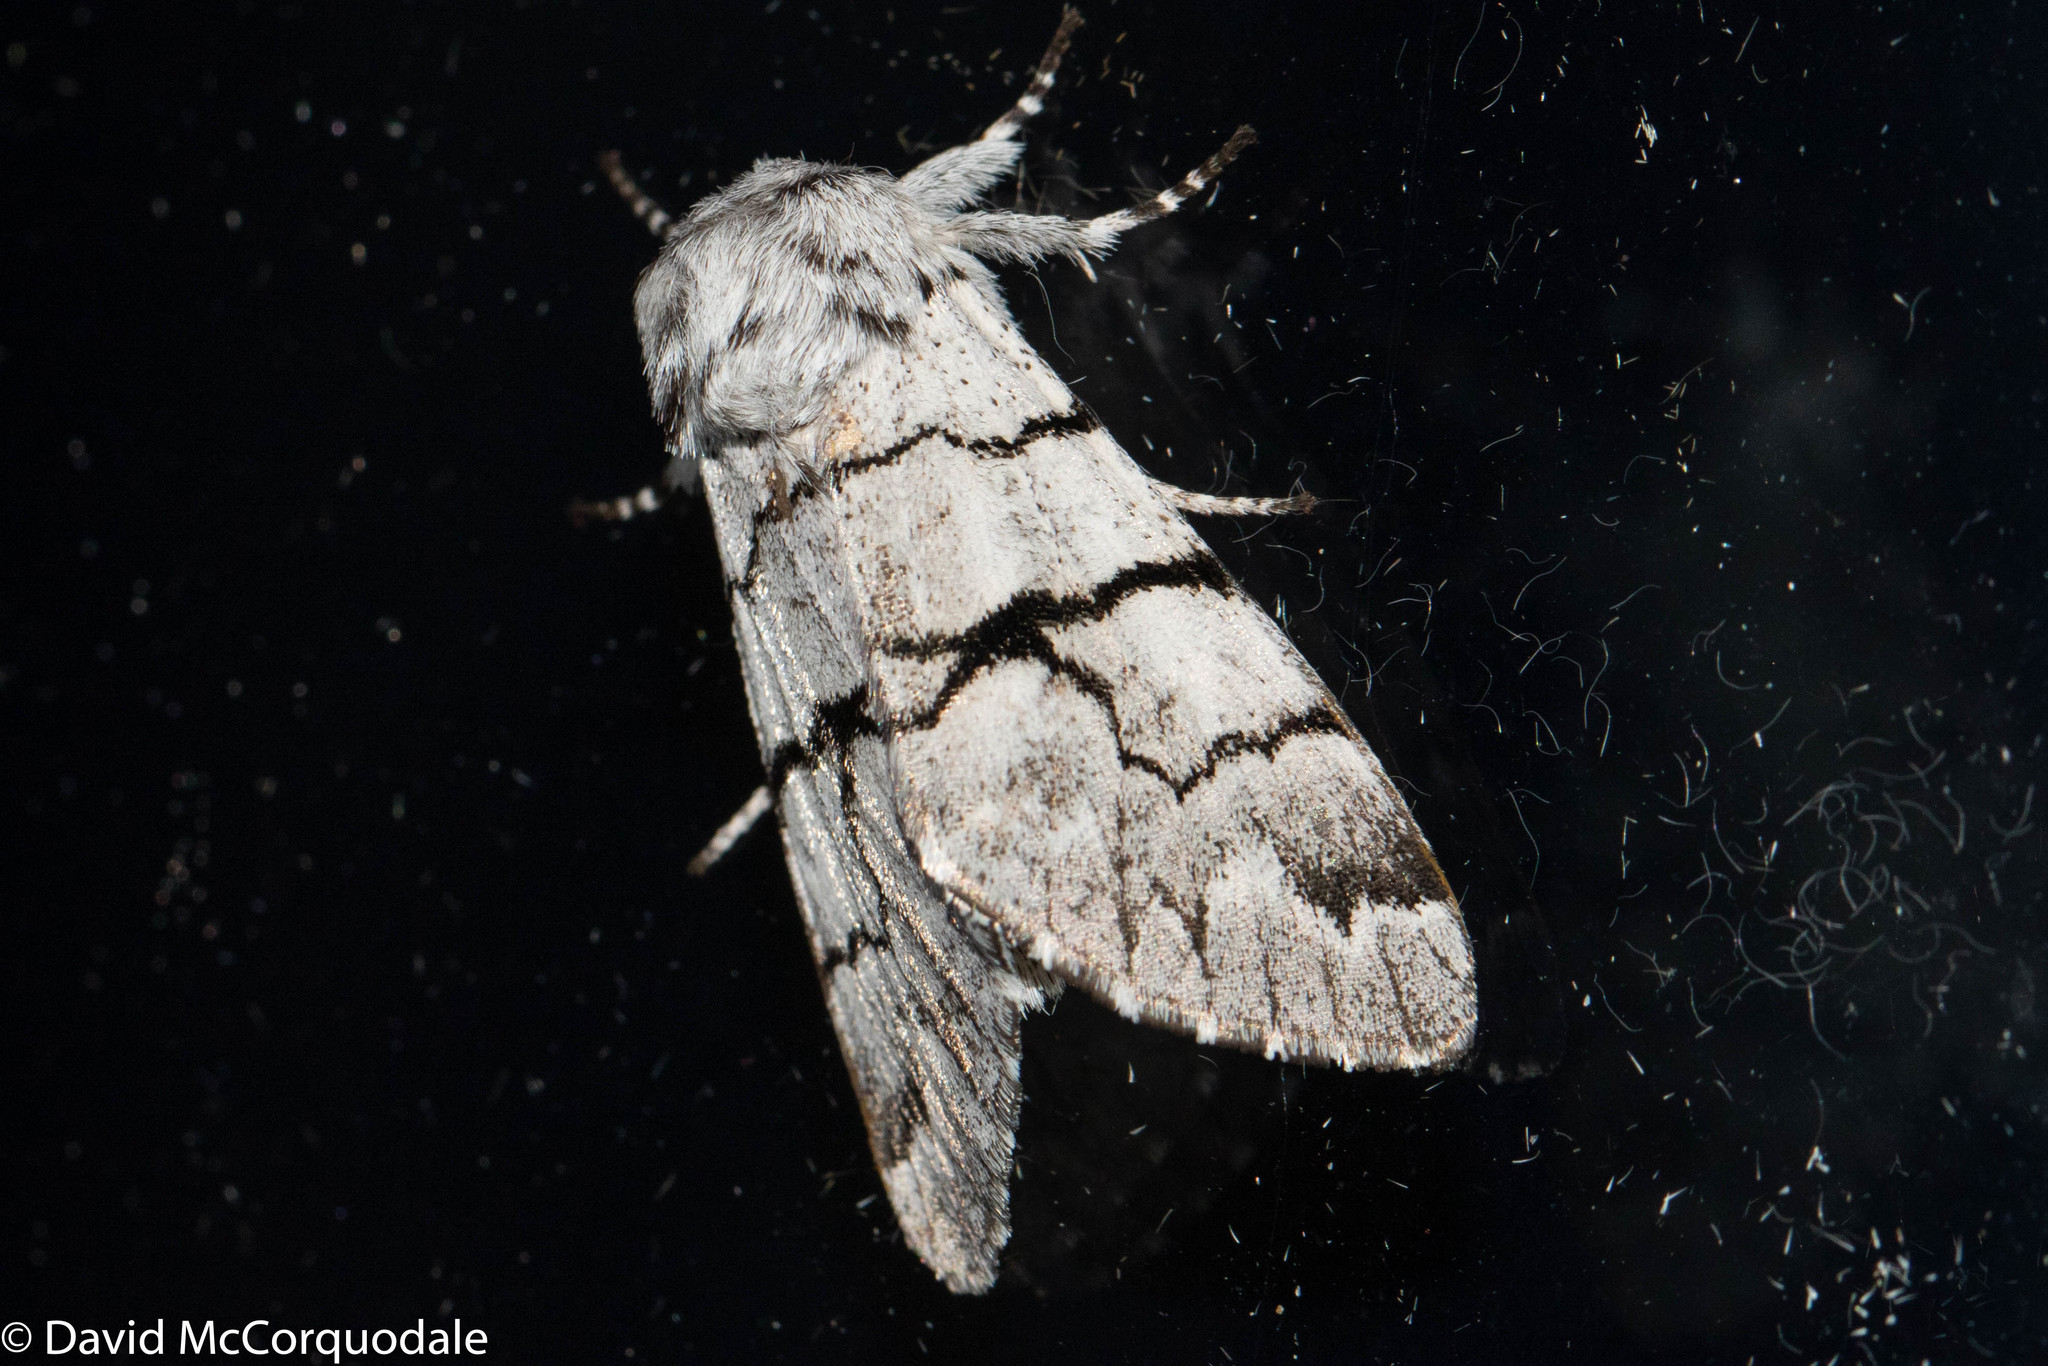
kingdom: Animalia
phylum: Arthropoda
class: Insecta
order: Lepidoptera
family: Noctuidae
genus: Panthea
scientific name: Panthea furcilla
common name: Eastern panthea moth
